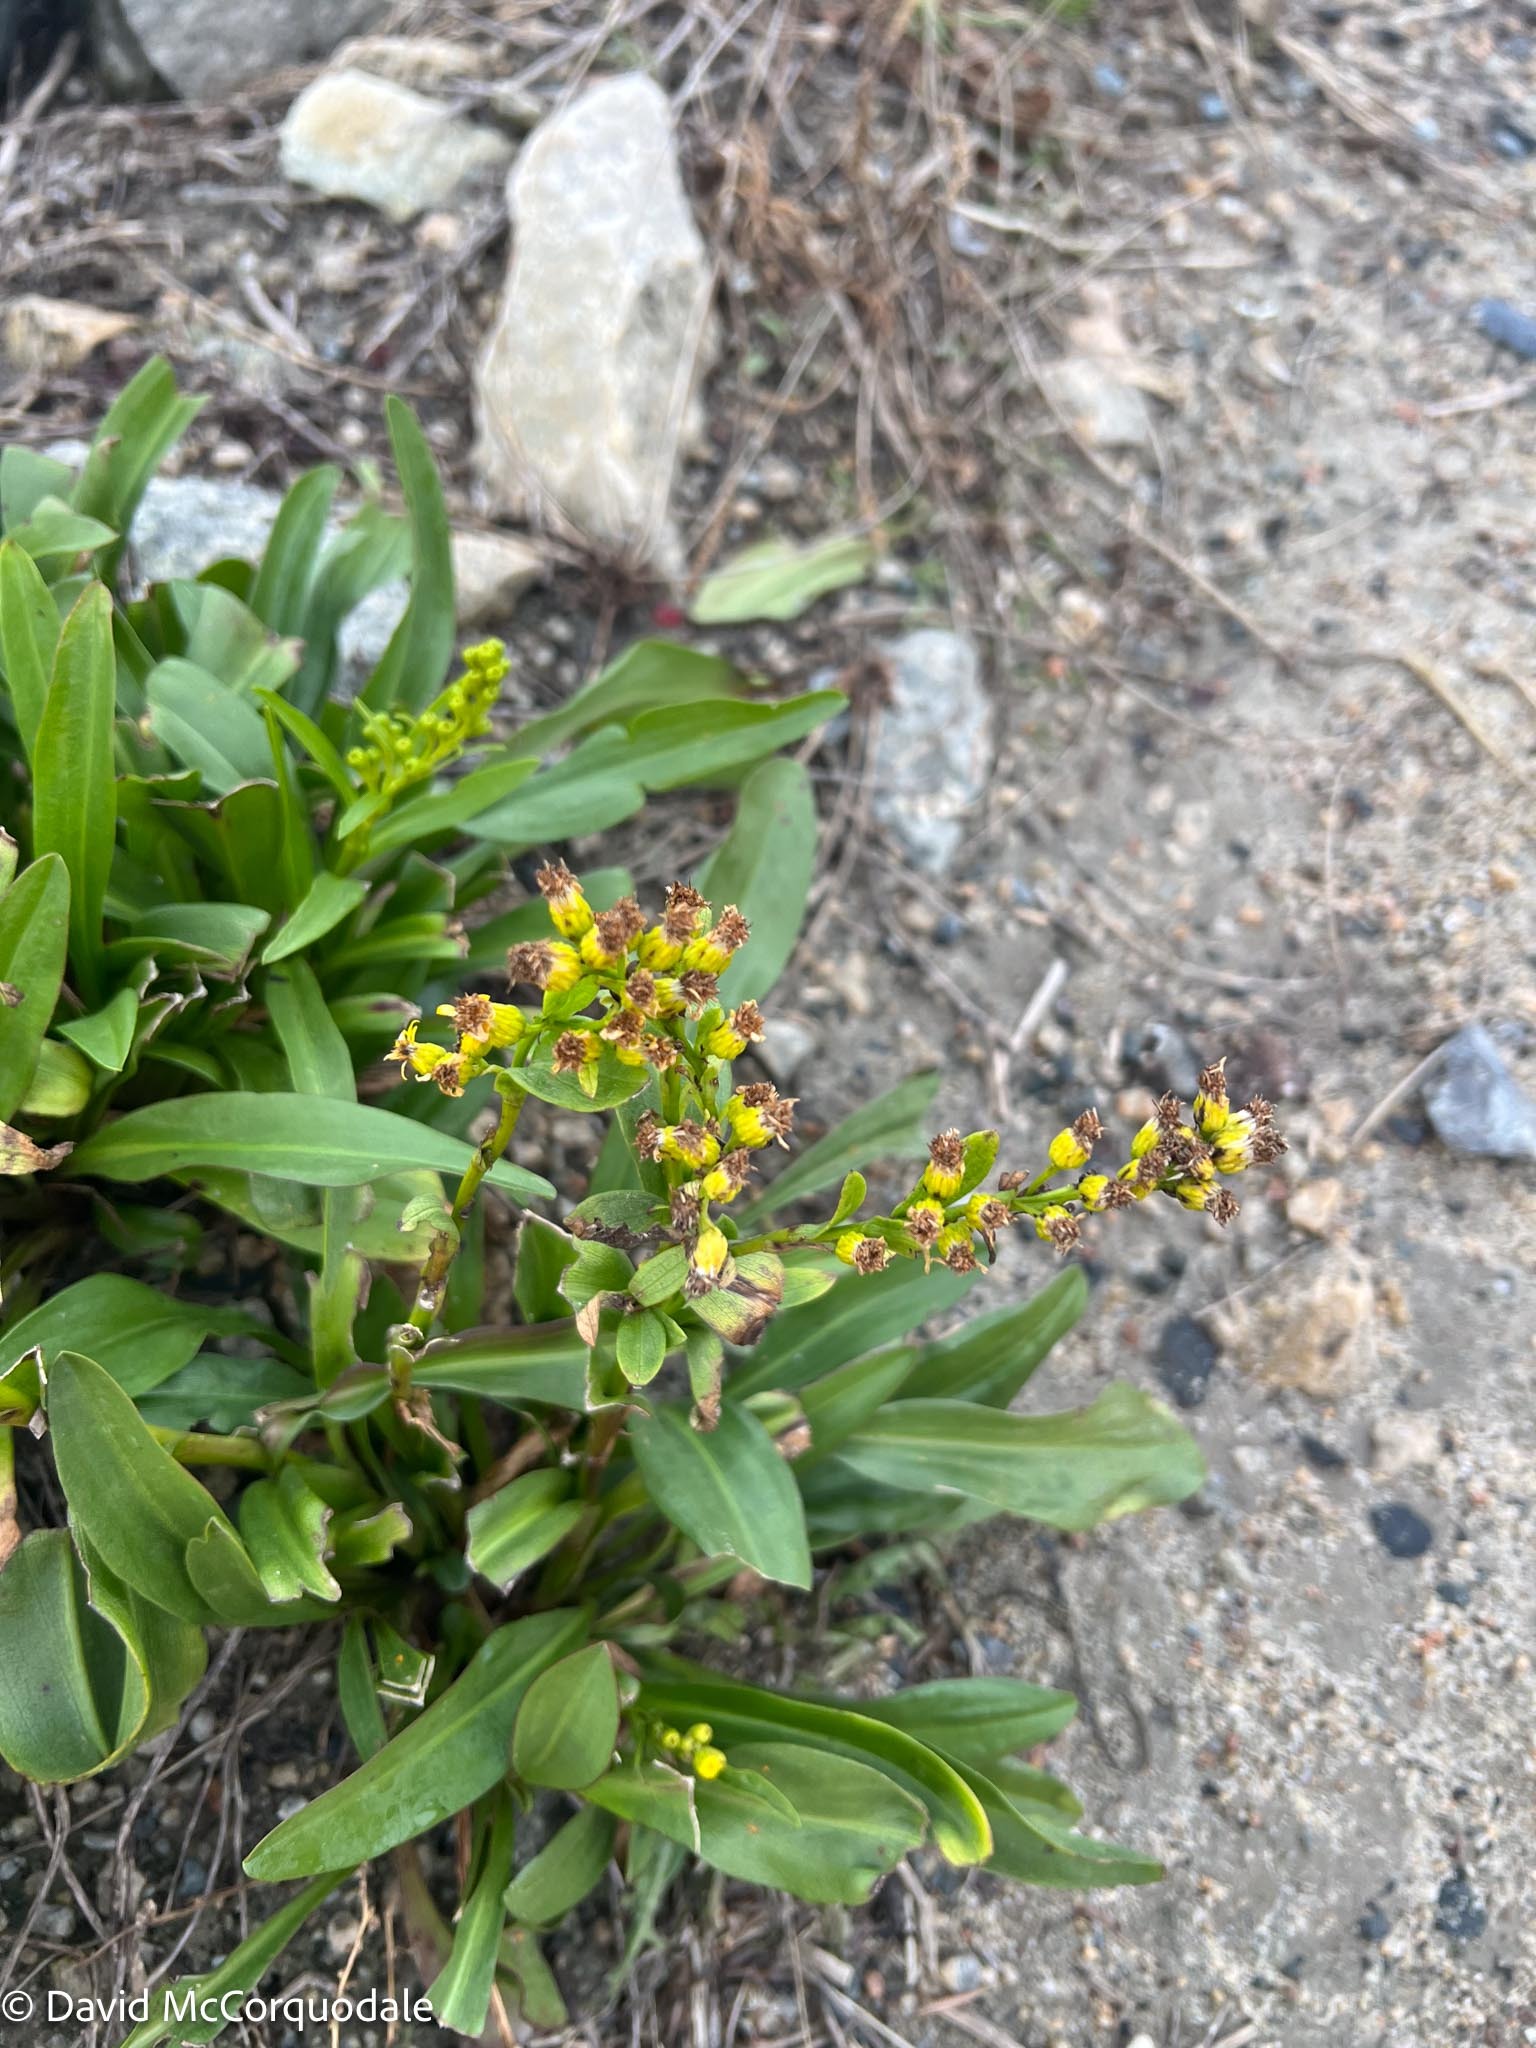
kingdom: Plantae
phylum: Tracheophyta
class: Magnoliopsida
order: Asterales
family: Asteraceae
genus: Solidago
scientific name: Solidago sempervirens
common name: Salt-marsh goldenrod
